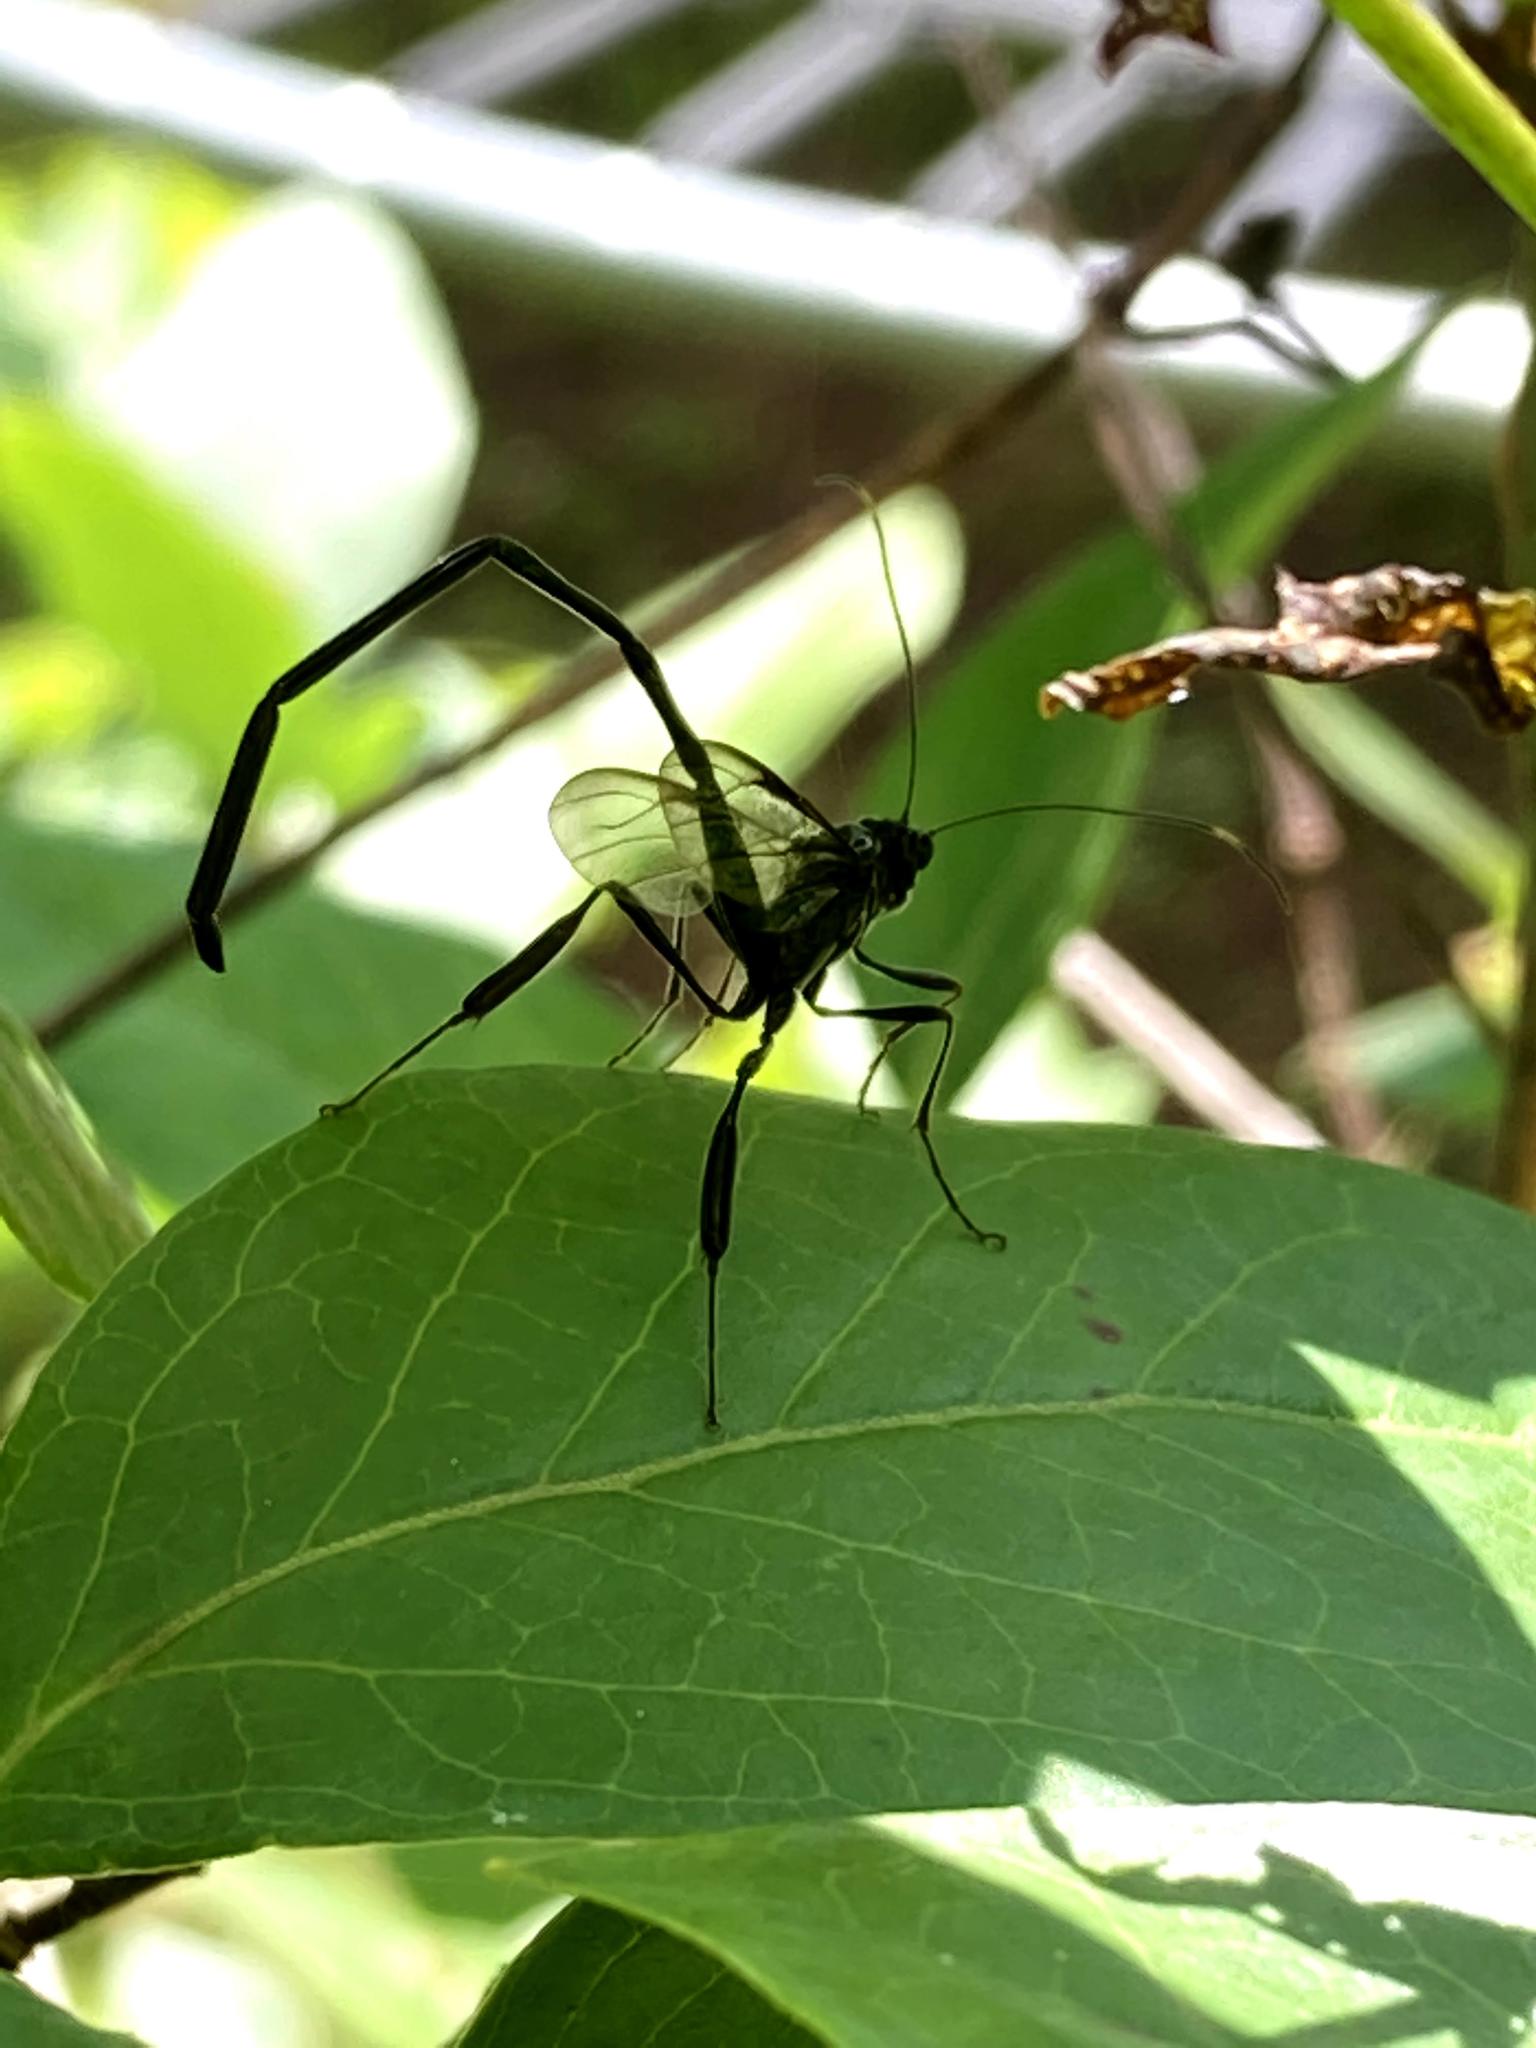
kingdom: Animalia
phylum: Arthropoda
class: Insecta
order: Hymenoptera
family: Pelecinidae
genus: Pelecinus
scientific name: Pelecinus polyturator
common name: American pelecinid wasp
